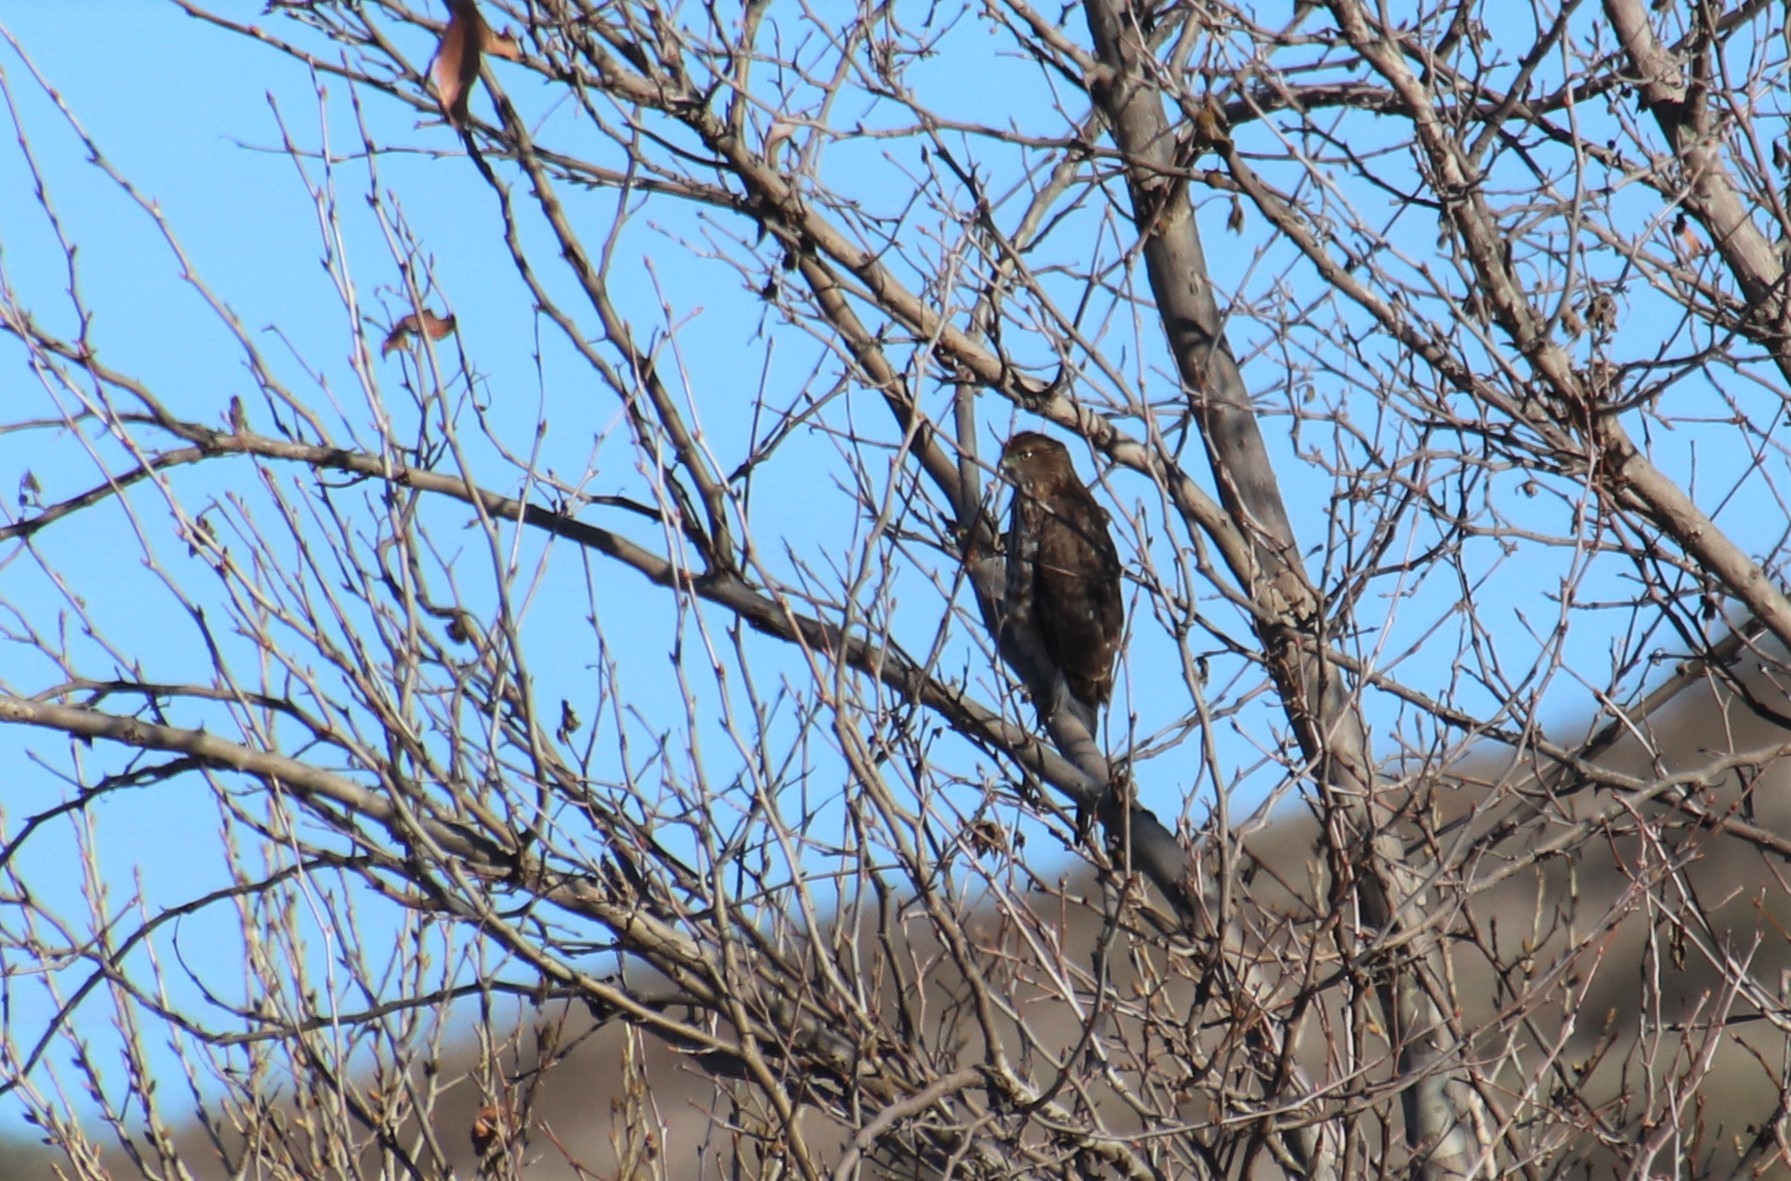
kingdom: Animalia
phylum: Chordata
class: Aves
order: Accipitriformes
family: Accipitridae
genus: Accipiter
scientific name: Accipiter cooperii
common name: Cooper's hawk
